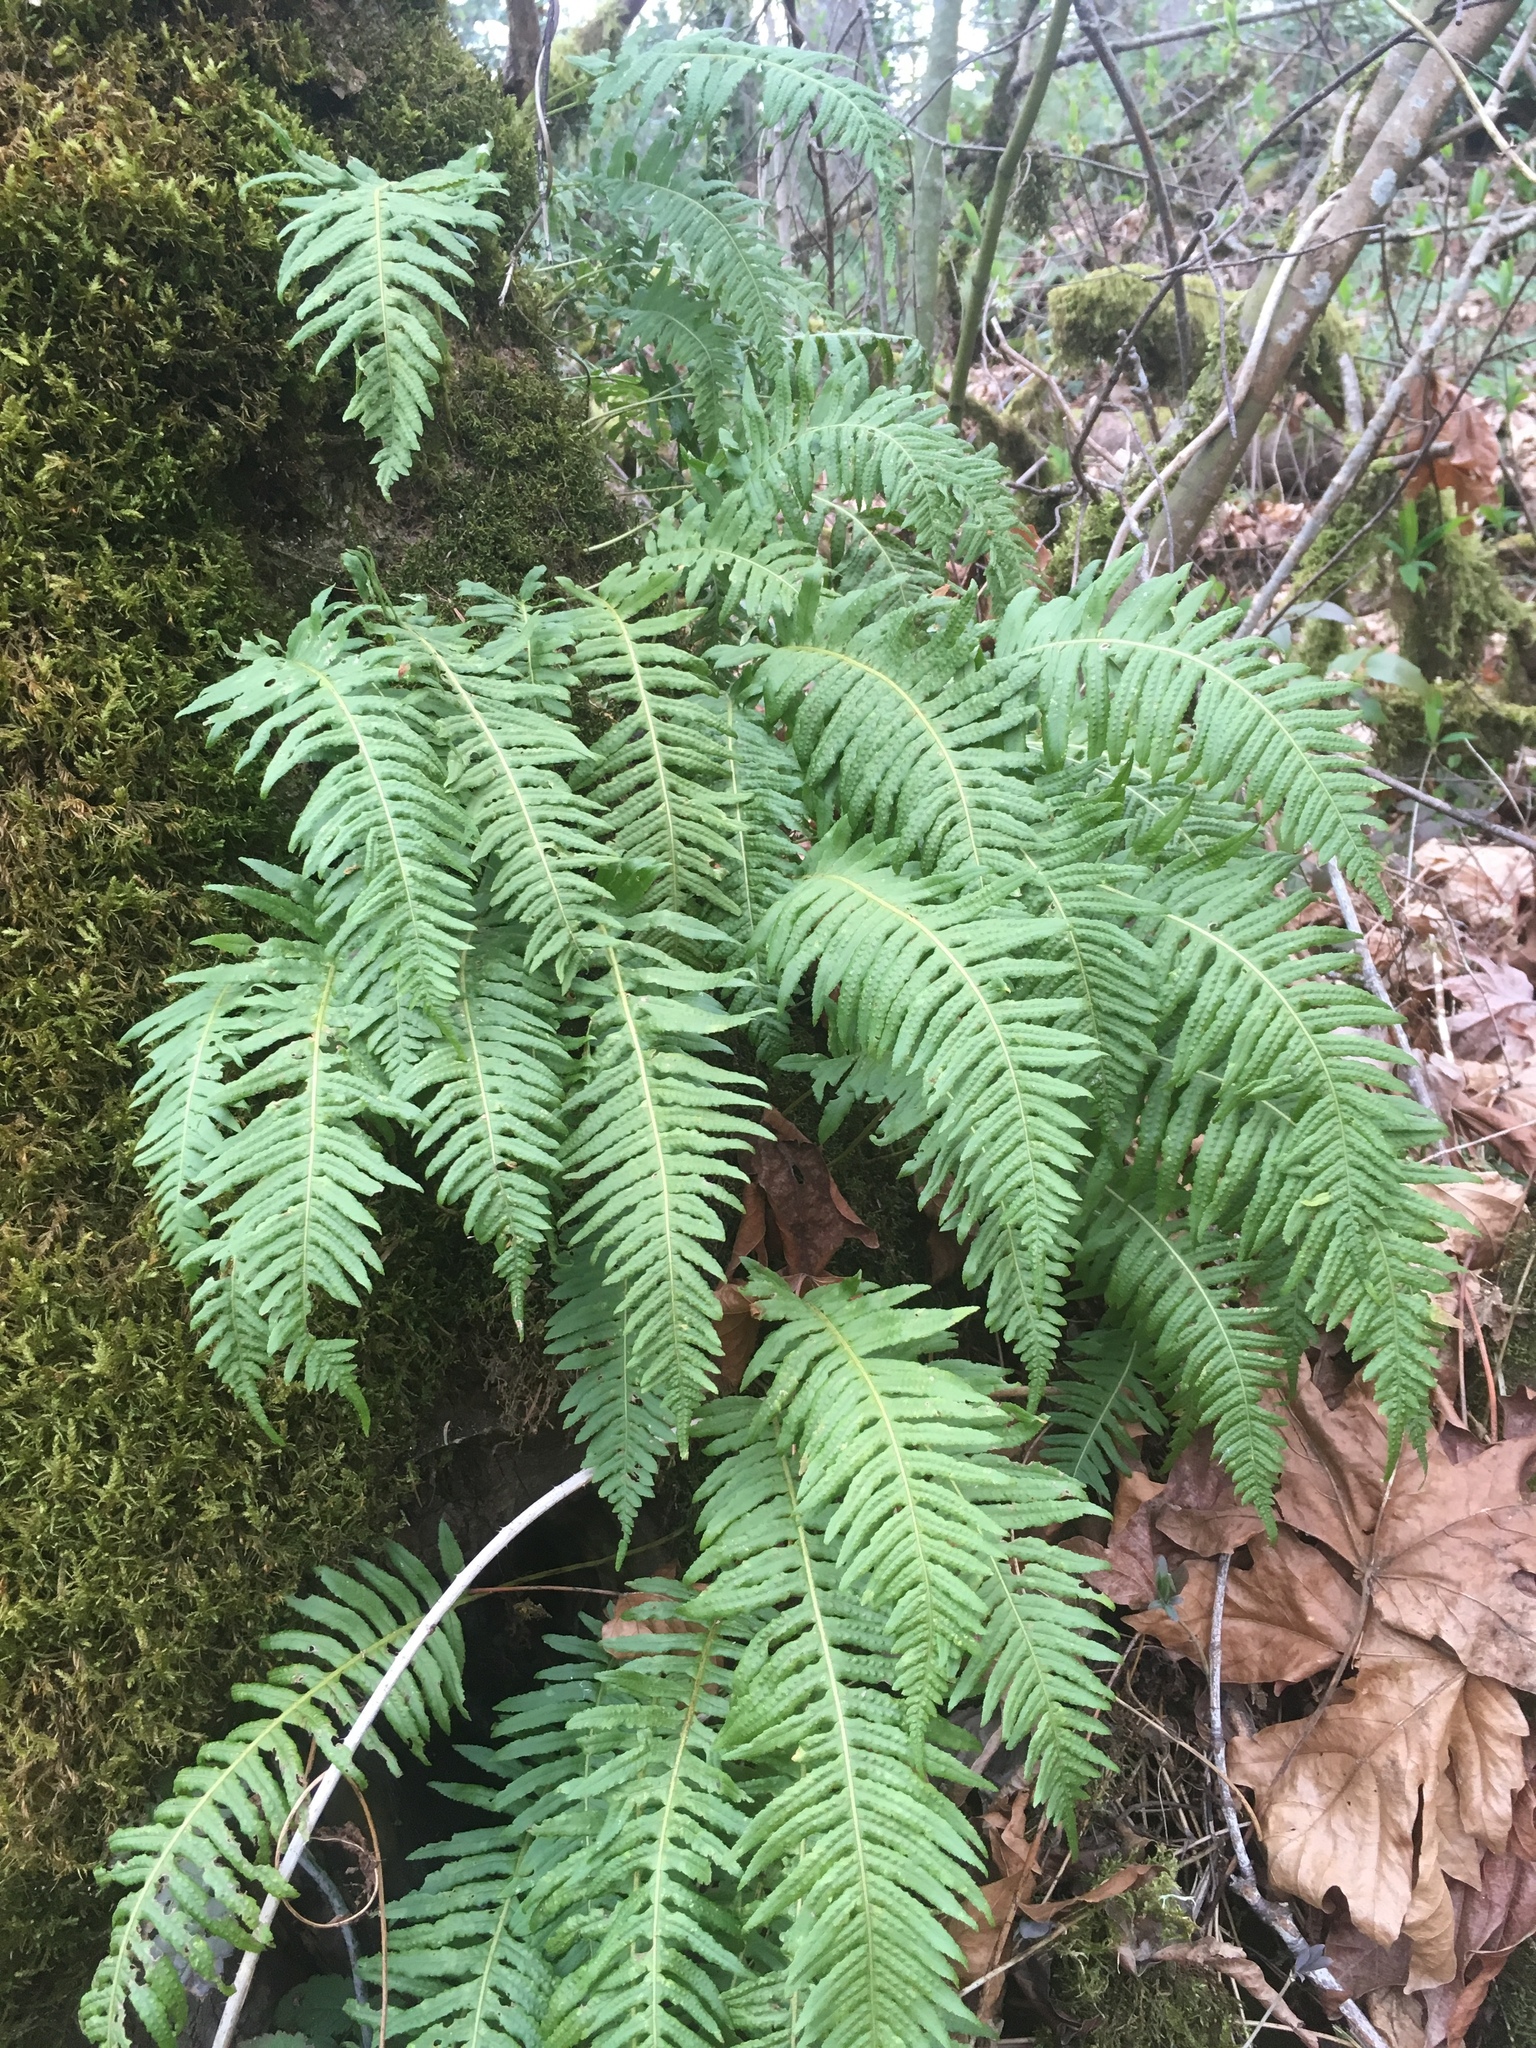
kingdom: Plantae
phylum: Tracheophyta
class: Polypodiopsida
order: Polypodiales
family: Polypodiaceae
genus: Polypodium
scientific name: Polypodium glycyrrhiza
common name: Licorice fern
